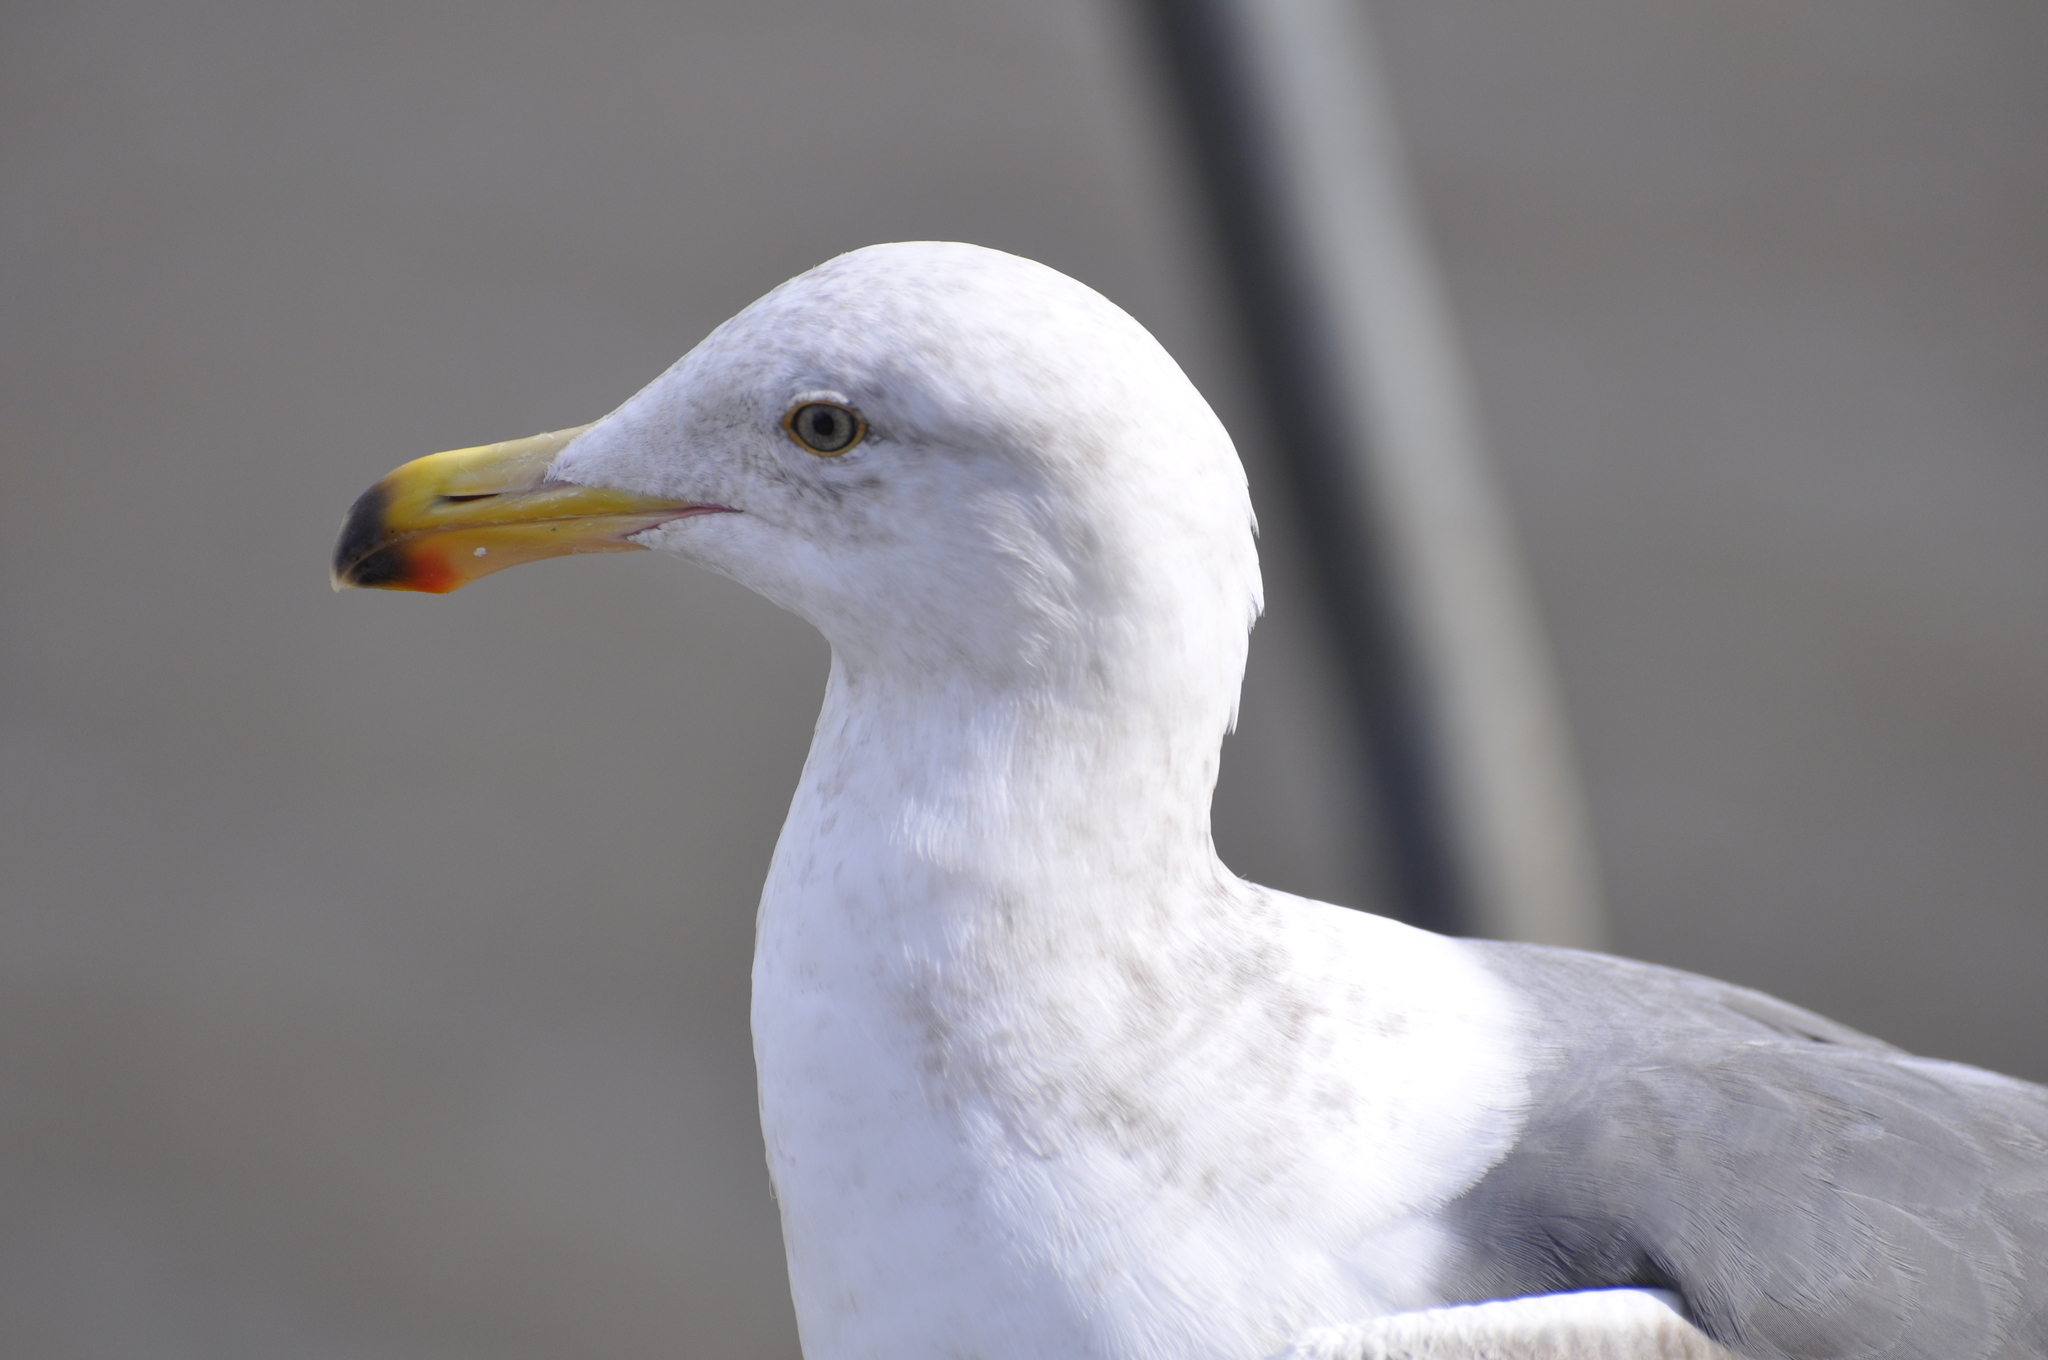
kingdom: Animalia
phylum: Chordata
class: Aves
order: Charadriiformes
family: Laridae
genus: Larus
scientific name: Larus occidentalis
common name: Western gull
